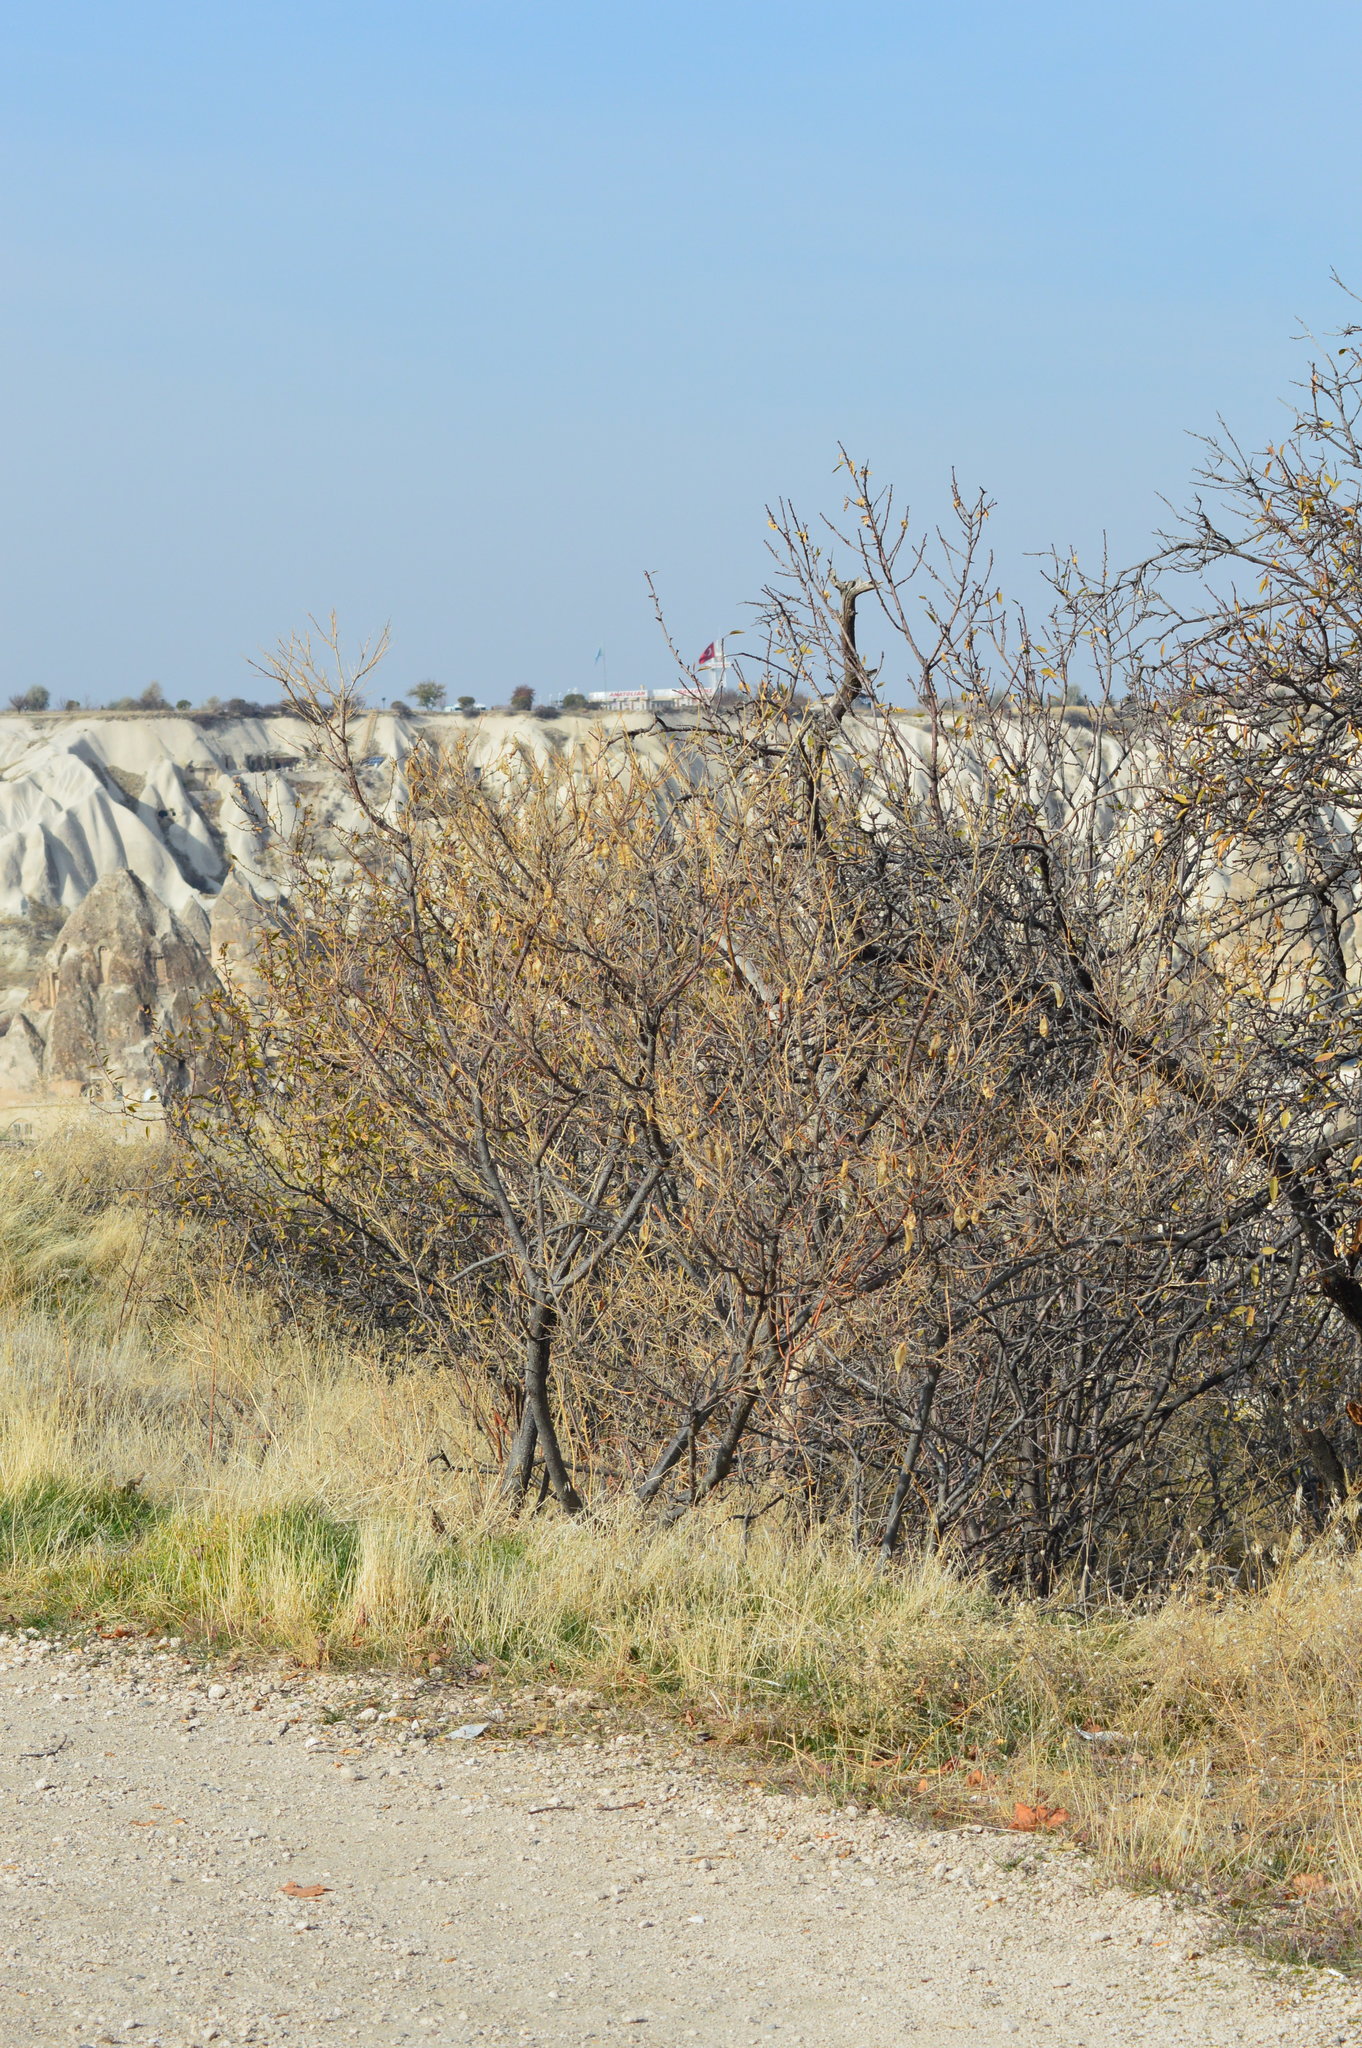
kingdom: Plantae
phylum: Tracheophyta
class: Magnoliopsida
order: Fabales
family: Fabaceae
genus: Colutea
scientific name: Colutea cilicica
